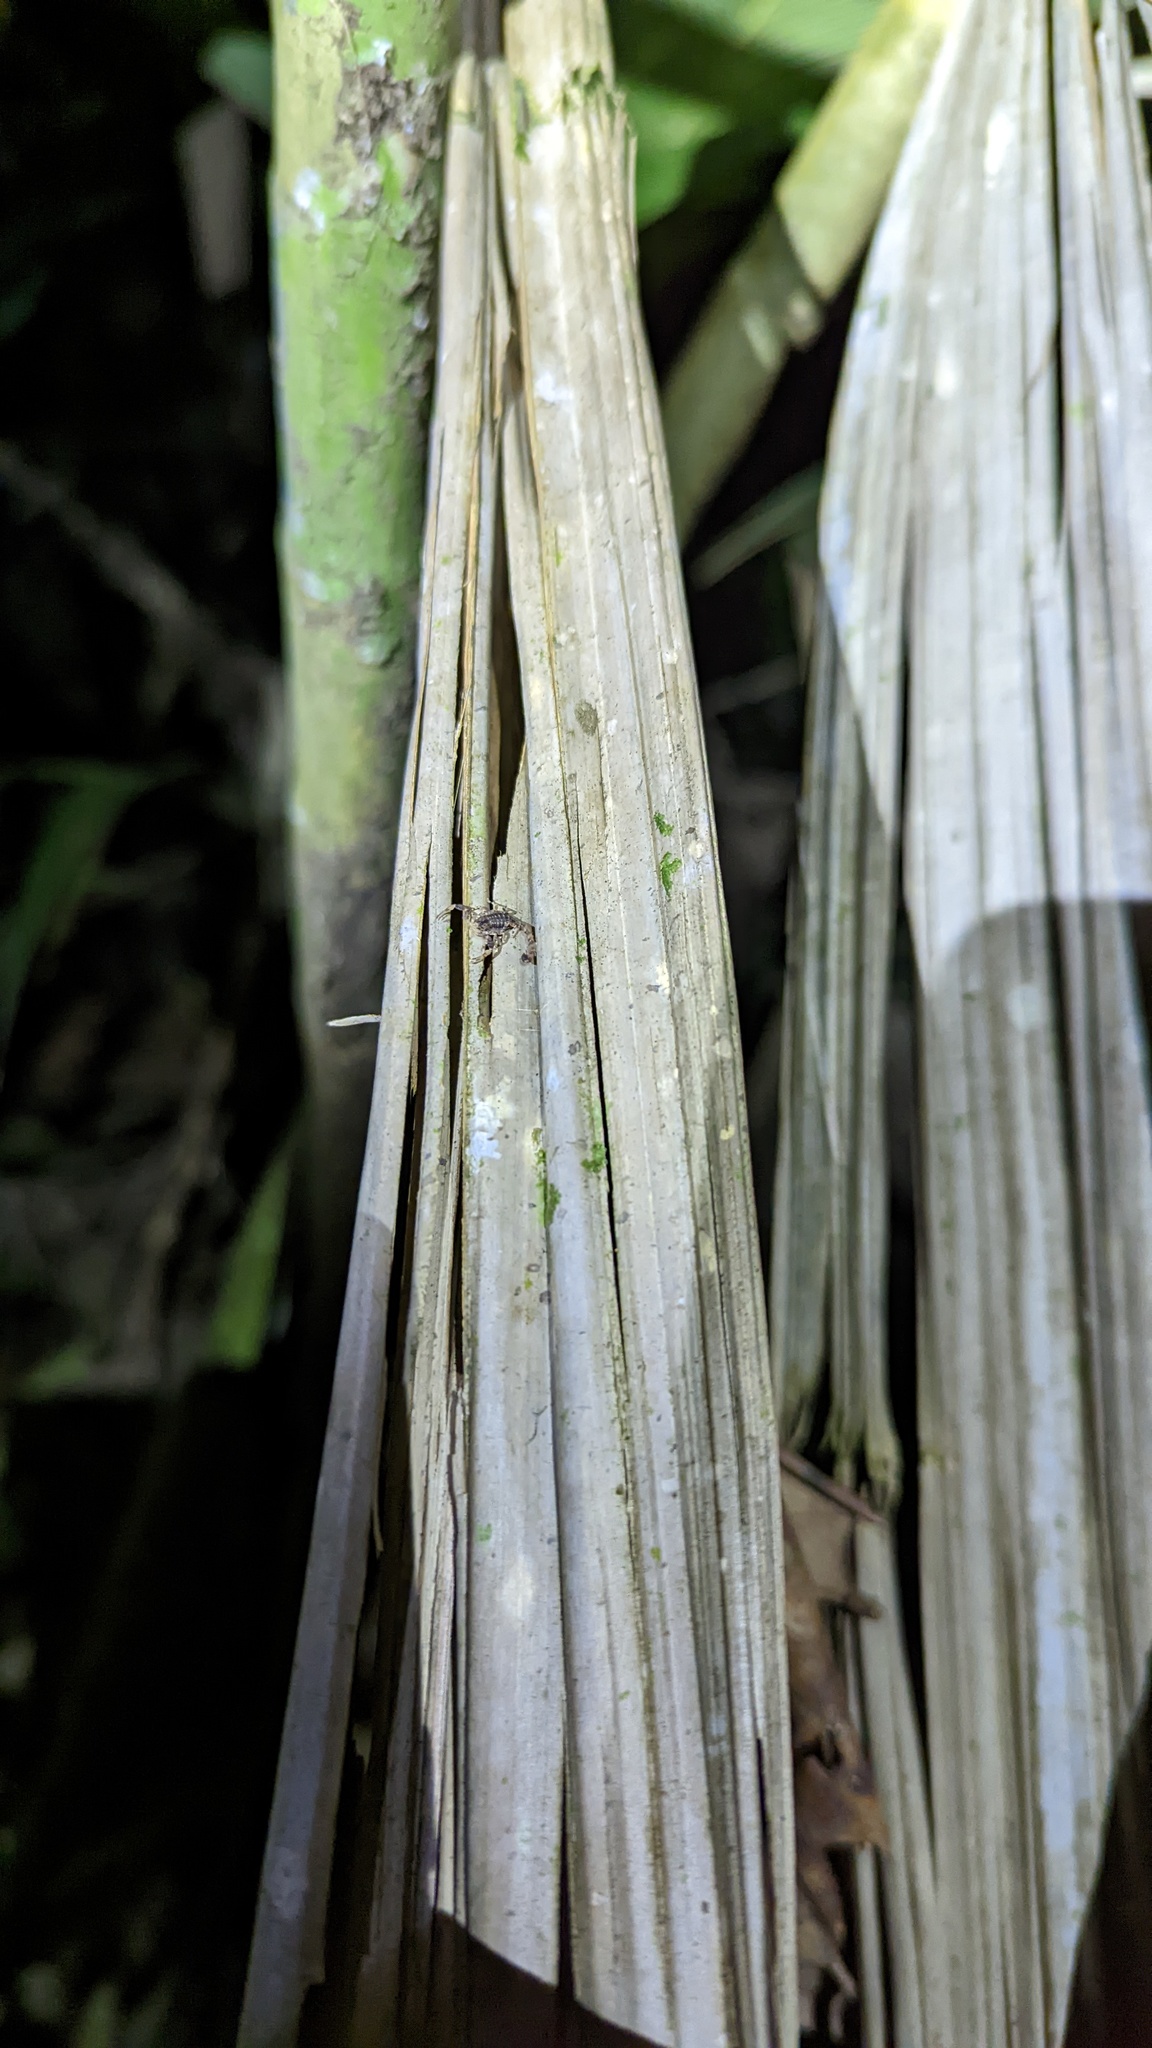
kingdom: Animalia
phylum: Arthropoda
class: Arachnida
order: Scorpiones
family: Buthidae
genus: Tityus
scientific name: Tityus ocelote
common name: Scorpions
